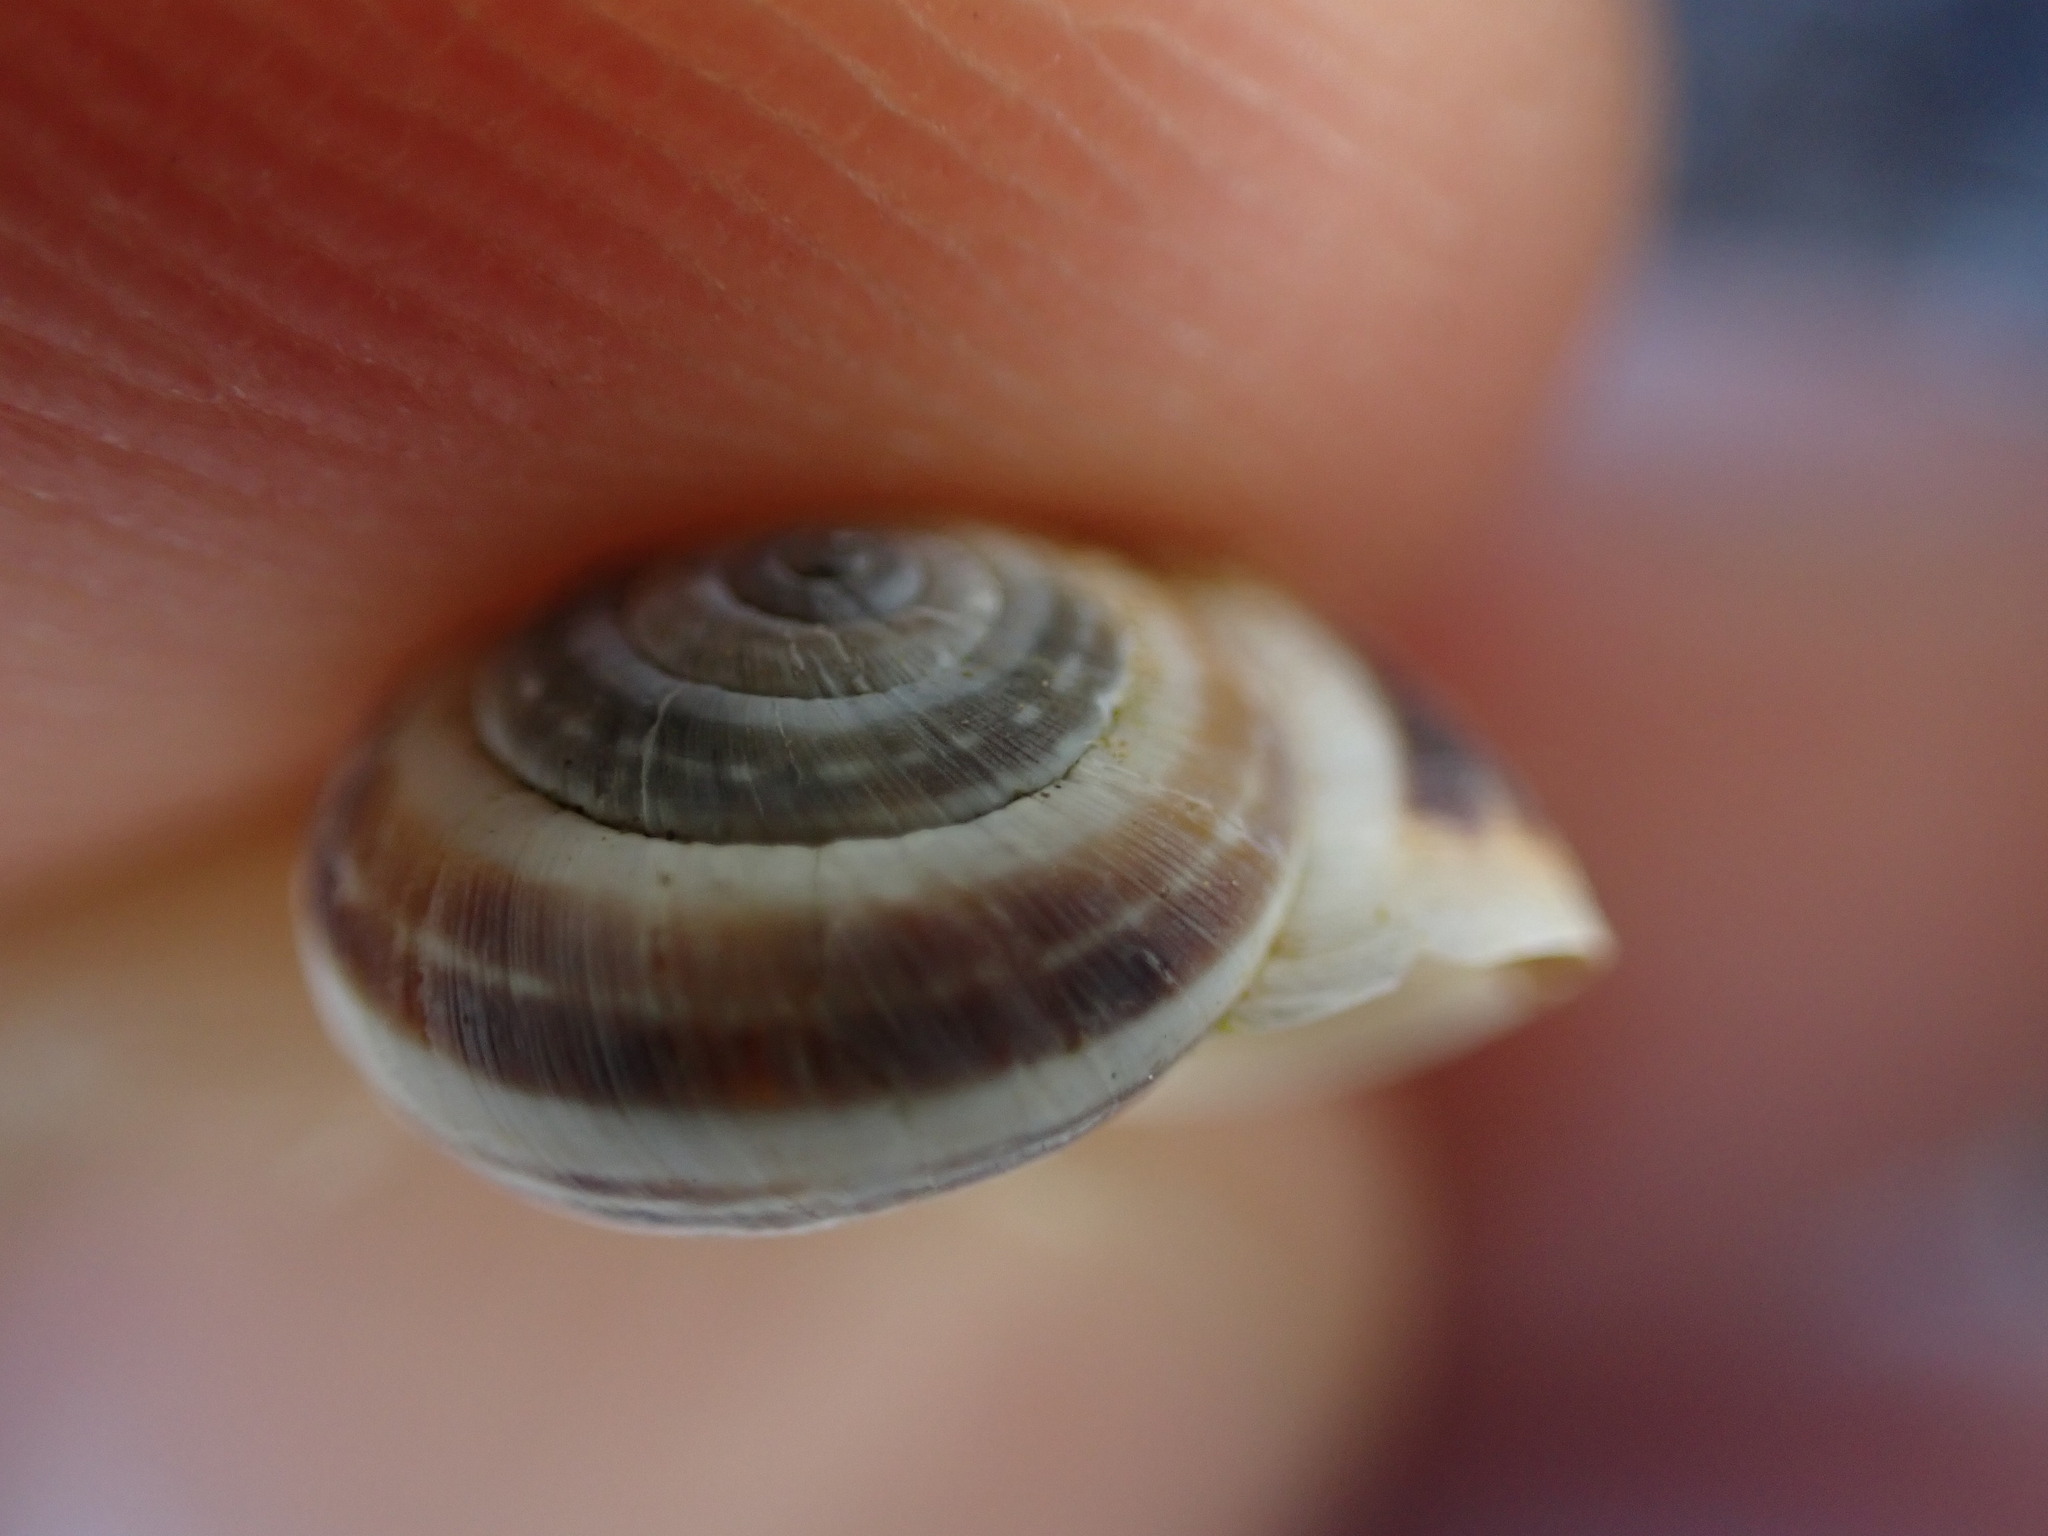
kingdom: Animalia
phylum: Mollusca
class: Gastropoda
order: Stylommatophora
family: Geomitridae
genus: Candidula
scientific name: Candidula unifasciata
